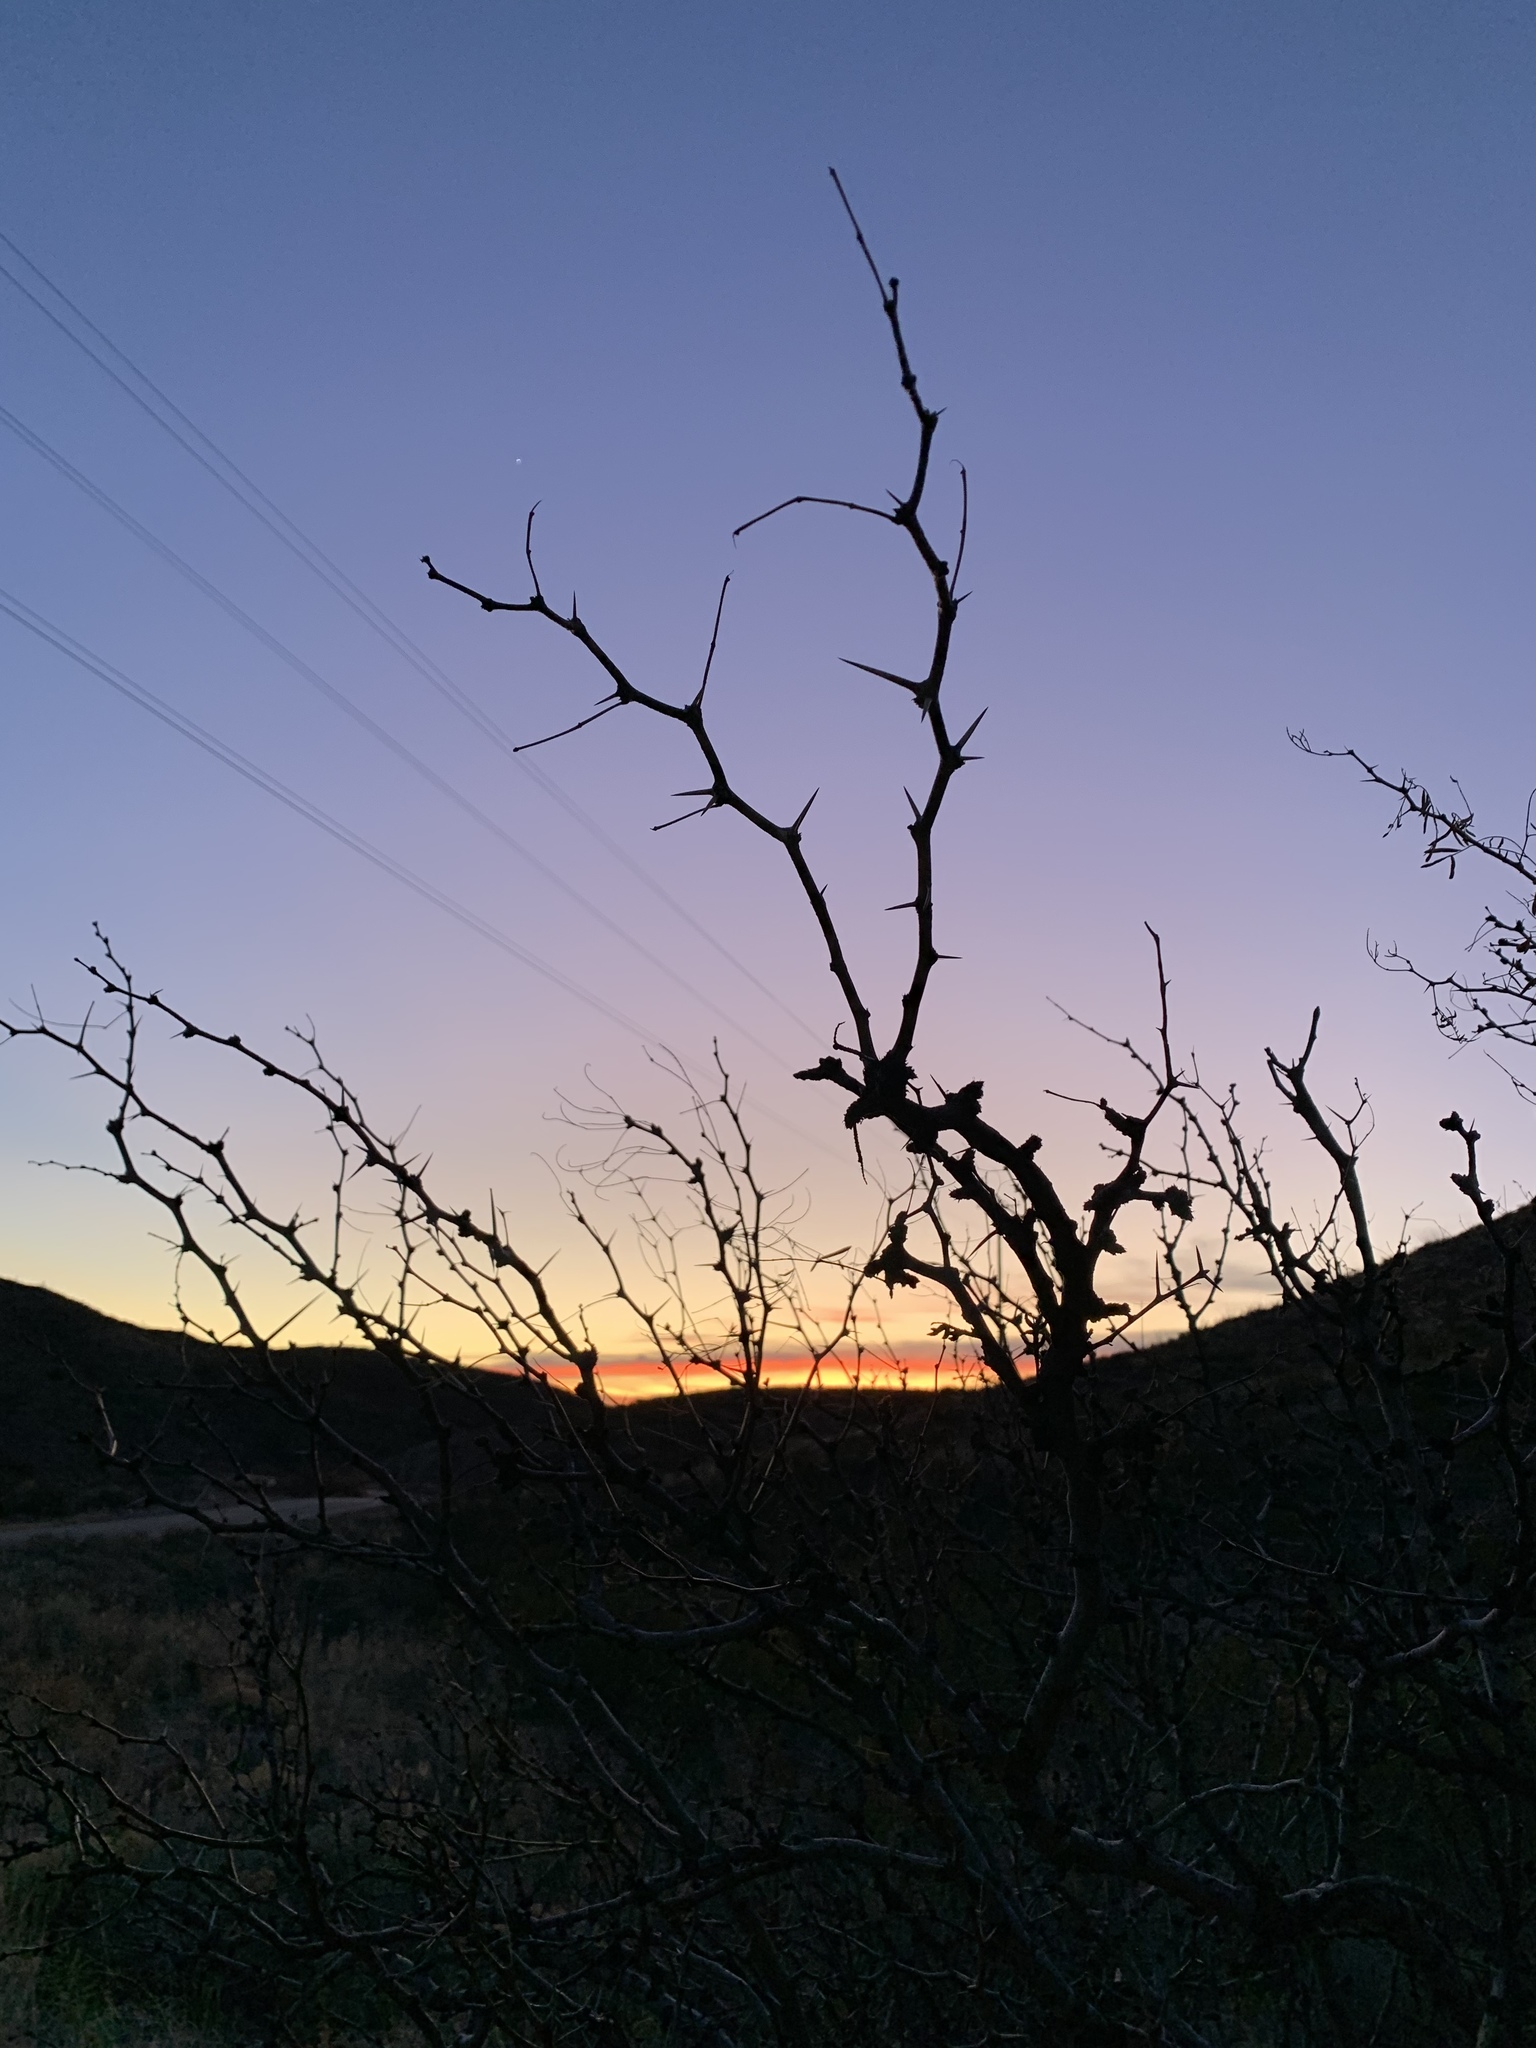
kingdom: Plantae
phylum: Tracheophyta
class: Magnoliopsida
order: Fabales
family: Fabaceae
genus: Prosopis
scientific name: Prosopis glandulosa
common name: Honey mesquite
